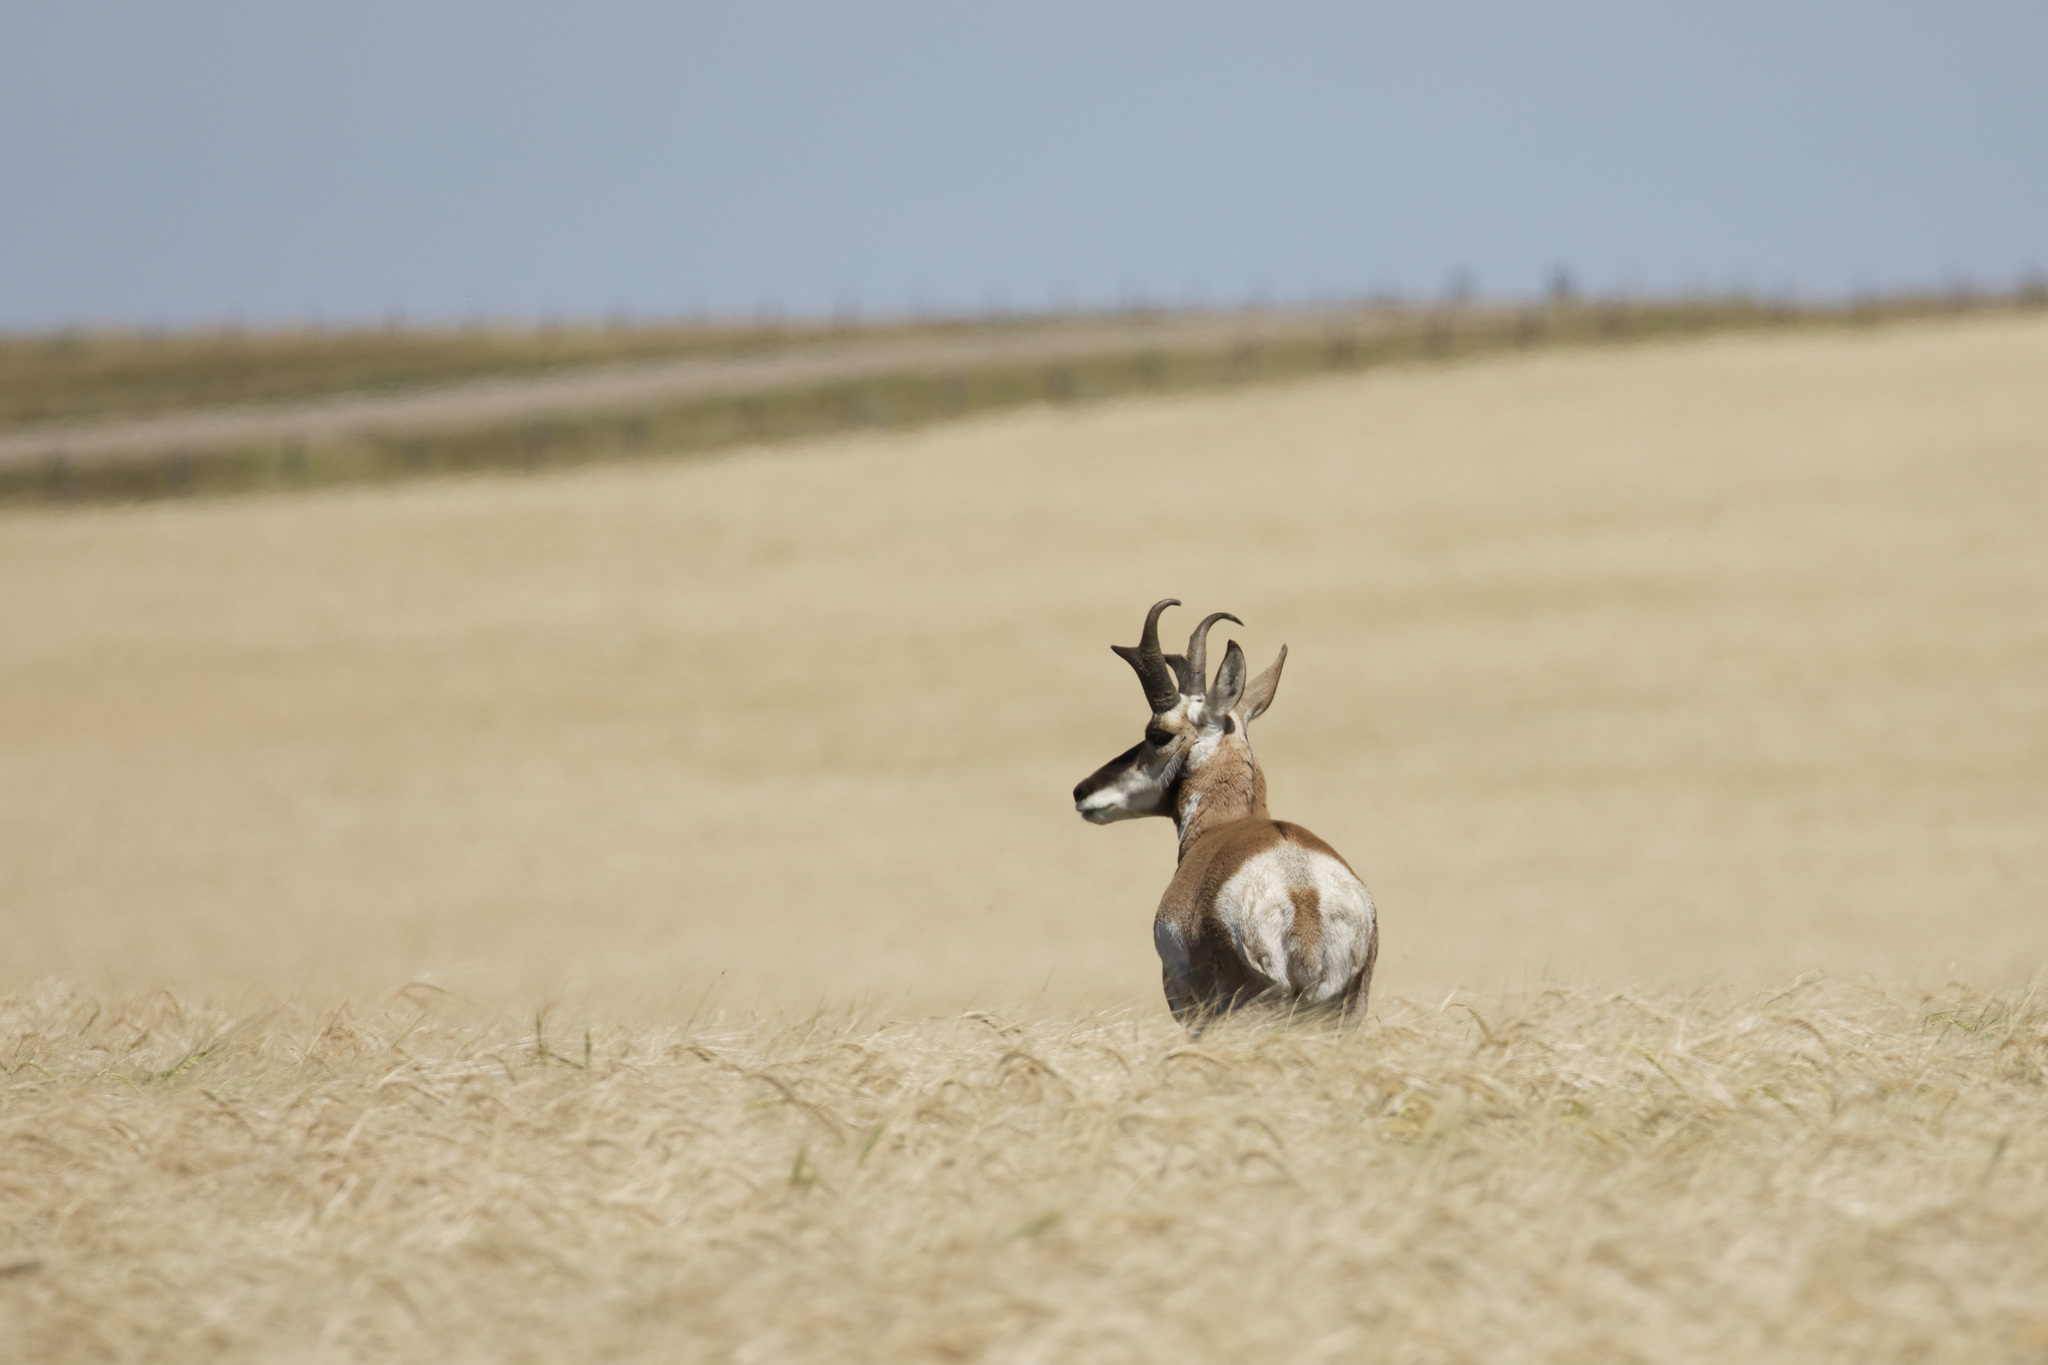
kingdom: Animalia
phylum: Chordata
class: Mammalia
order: Artiodactyla
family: Antilocapridae
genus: Antilocapra
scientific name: Antilocapra americana
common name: Pronghorn
